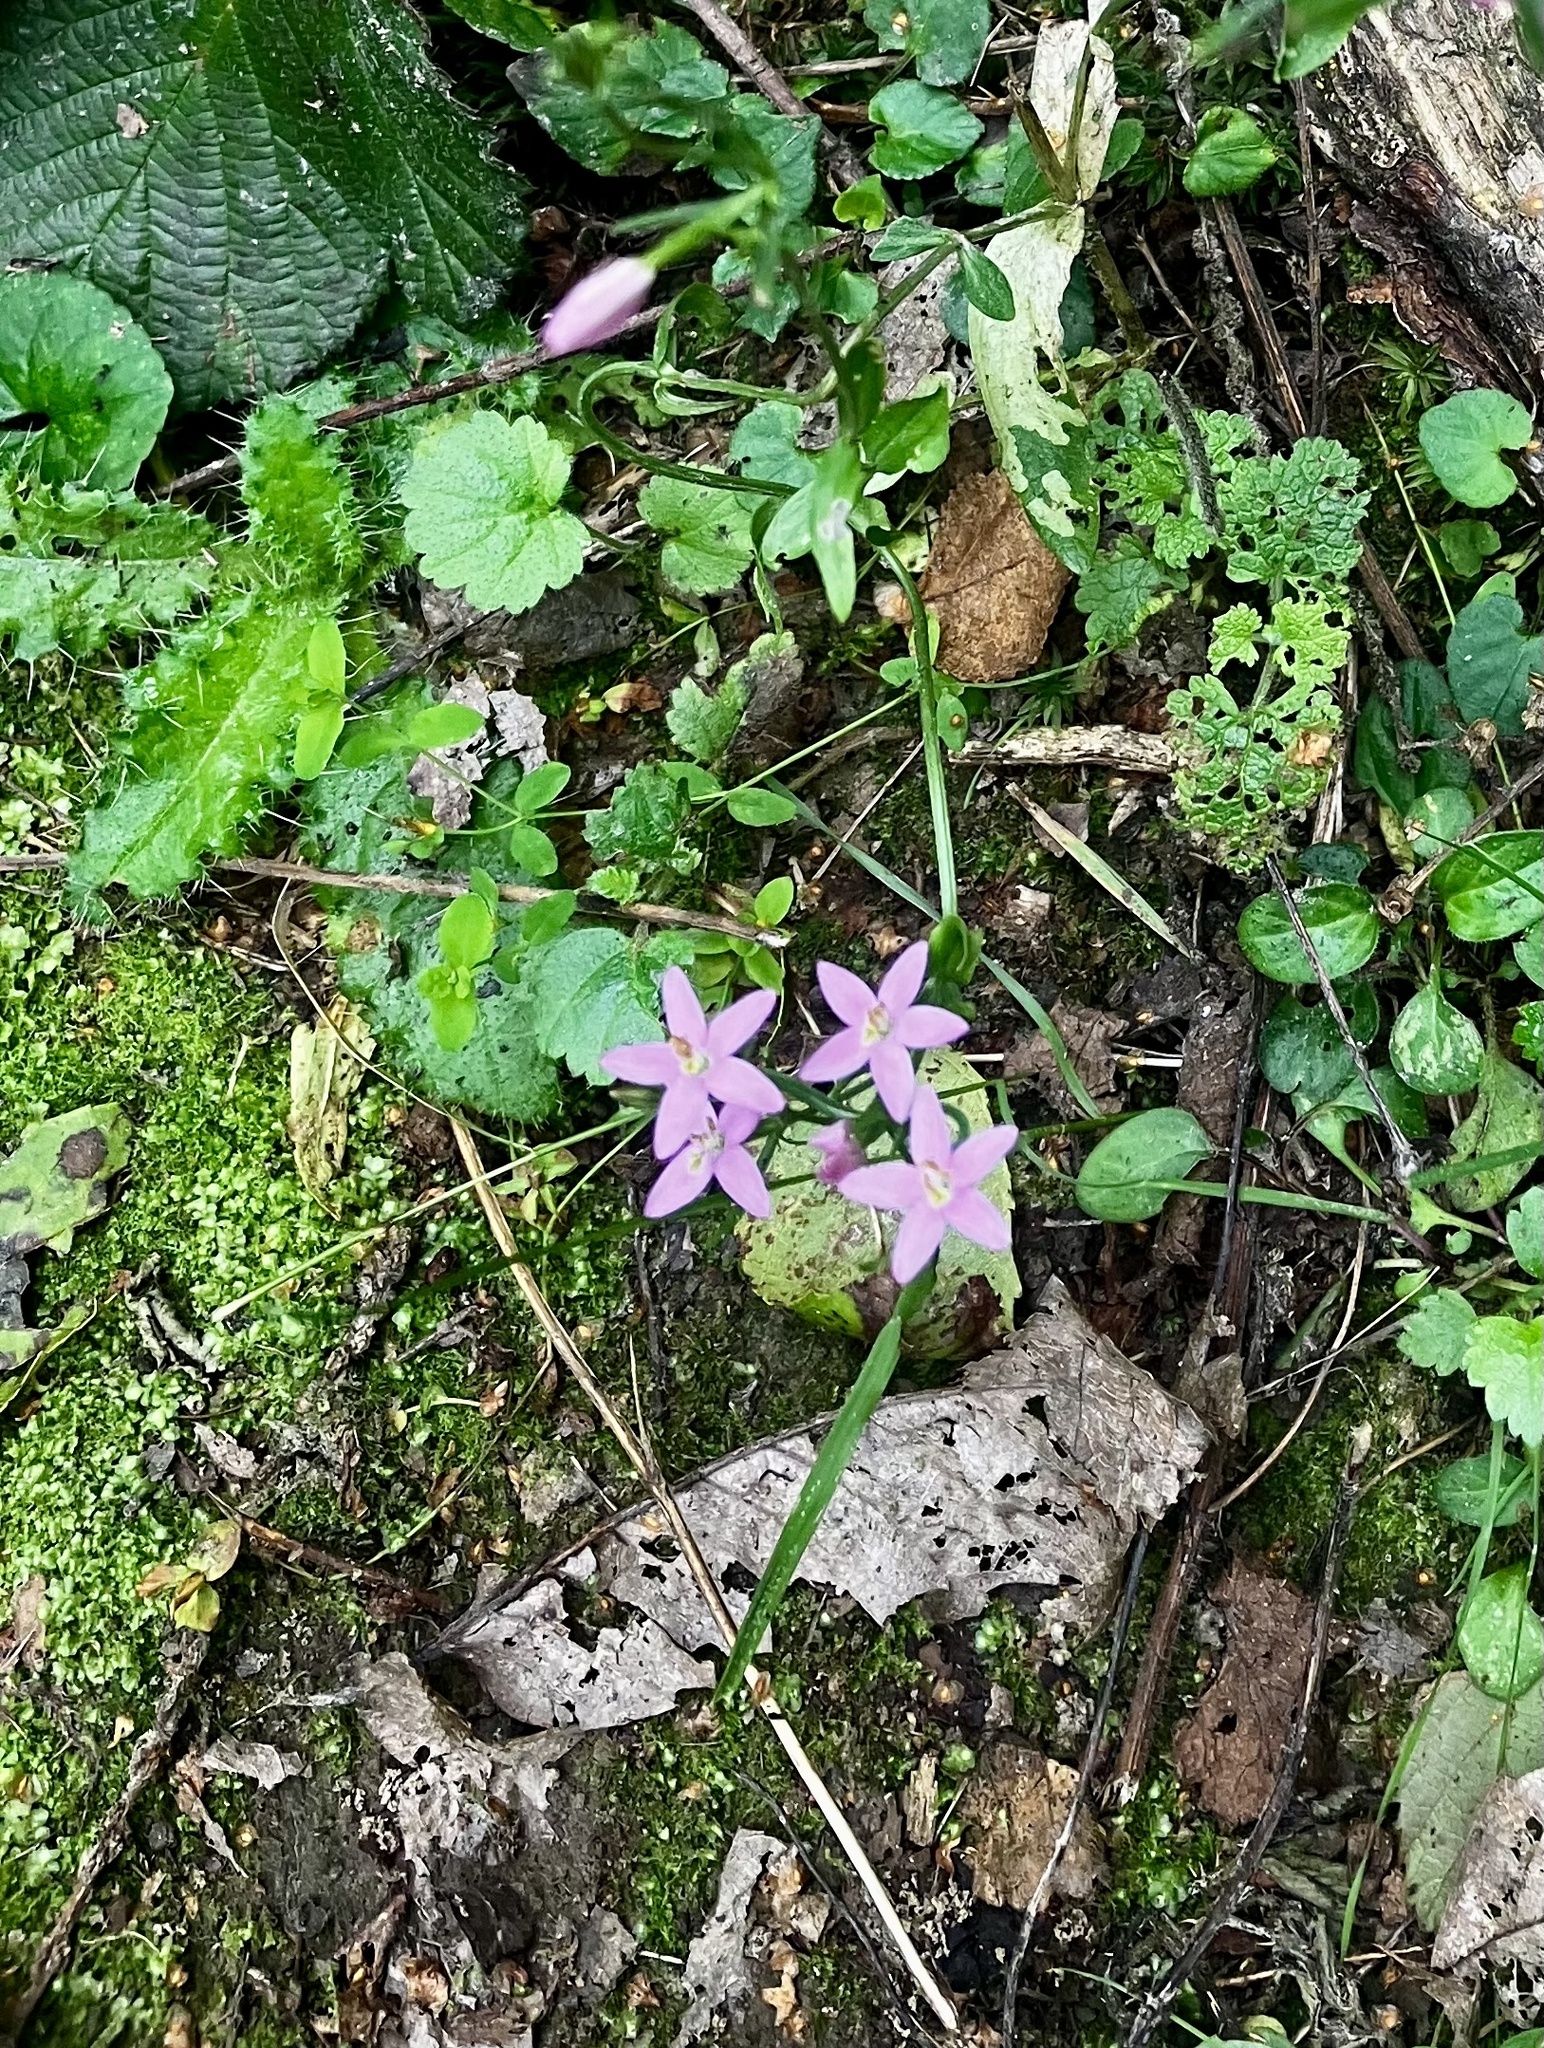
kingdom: Plantae
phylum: Tracheophyta
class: Magnoliopsida
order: Gentianales
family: Gentianaceae
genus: Centaurium
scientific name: Centaurium erythraea
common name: Common centaury
